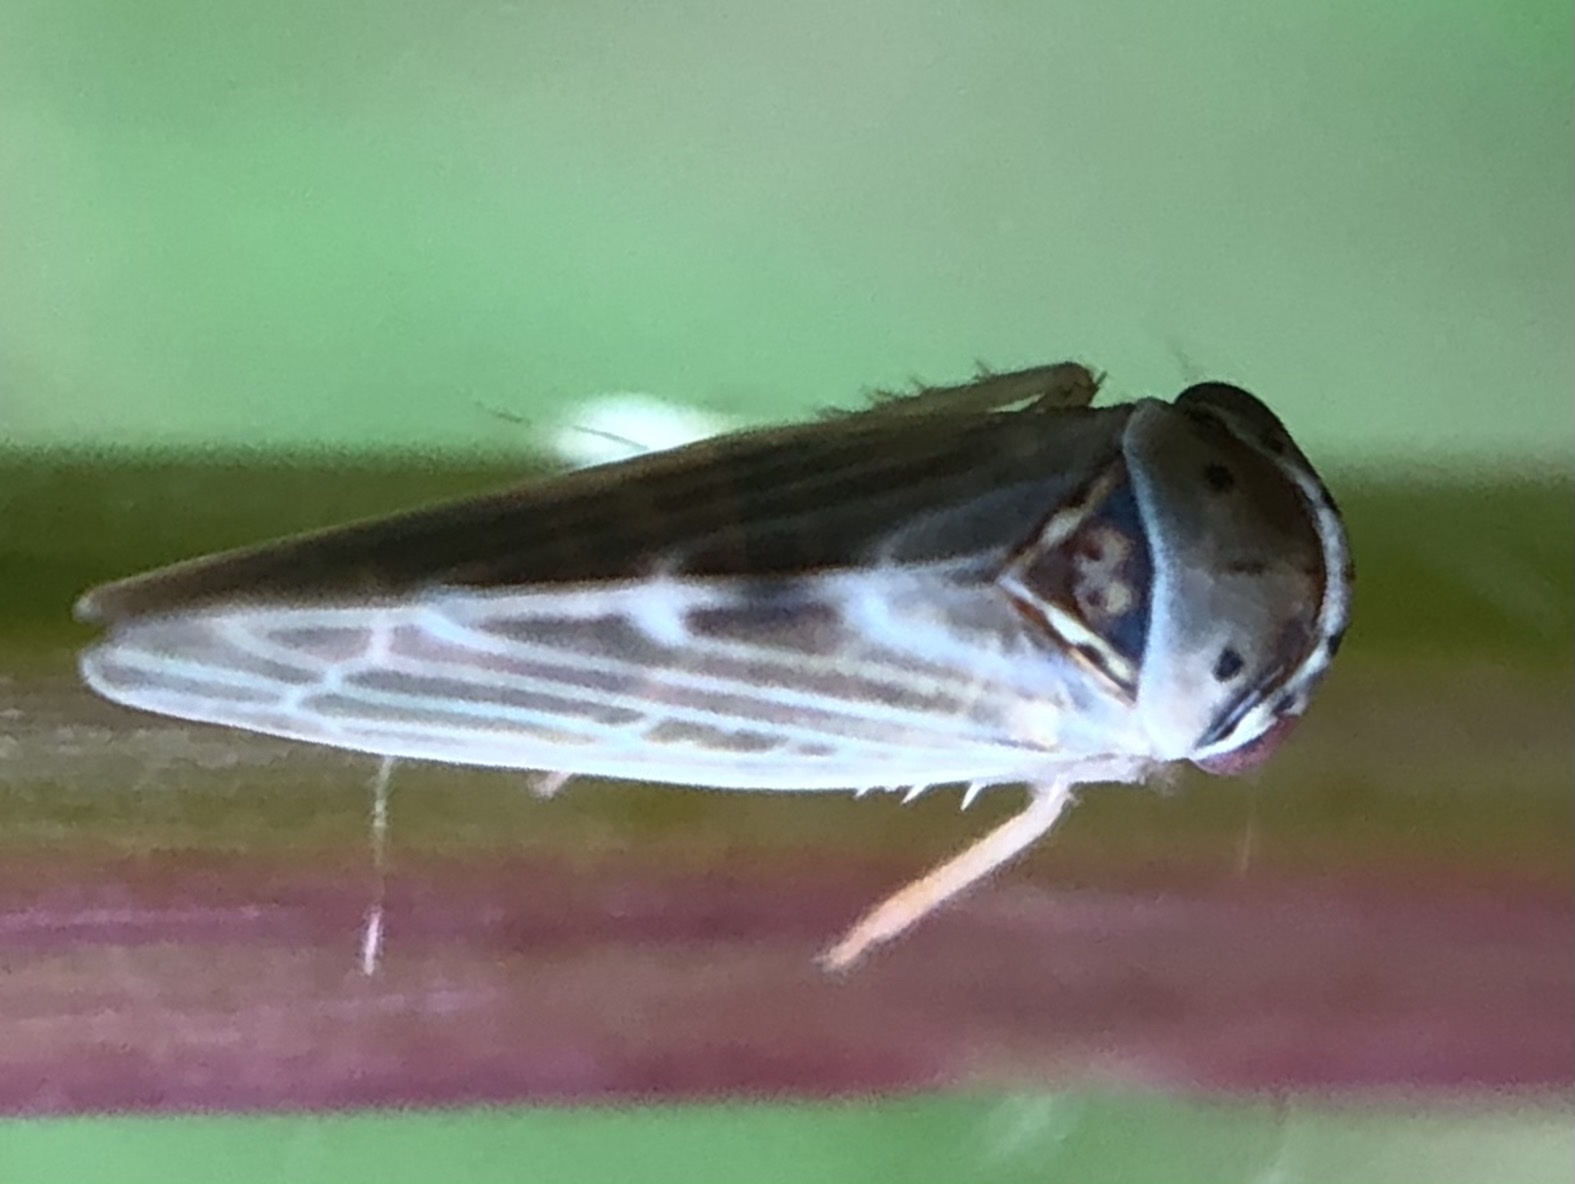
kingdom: Animalia
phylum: Arthropoda
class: Insecta
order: Hemiptera
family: Cicadellidae
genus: Agalliopsis
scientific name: Agalliopsis ancistra
